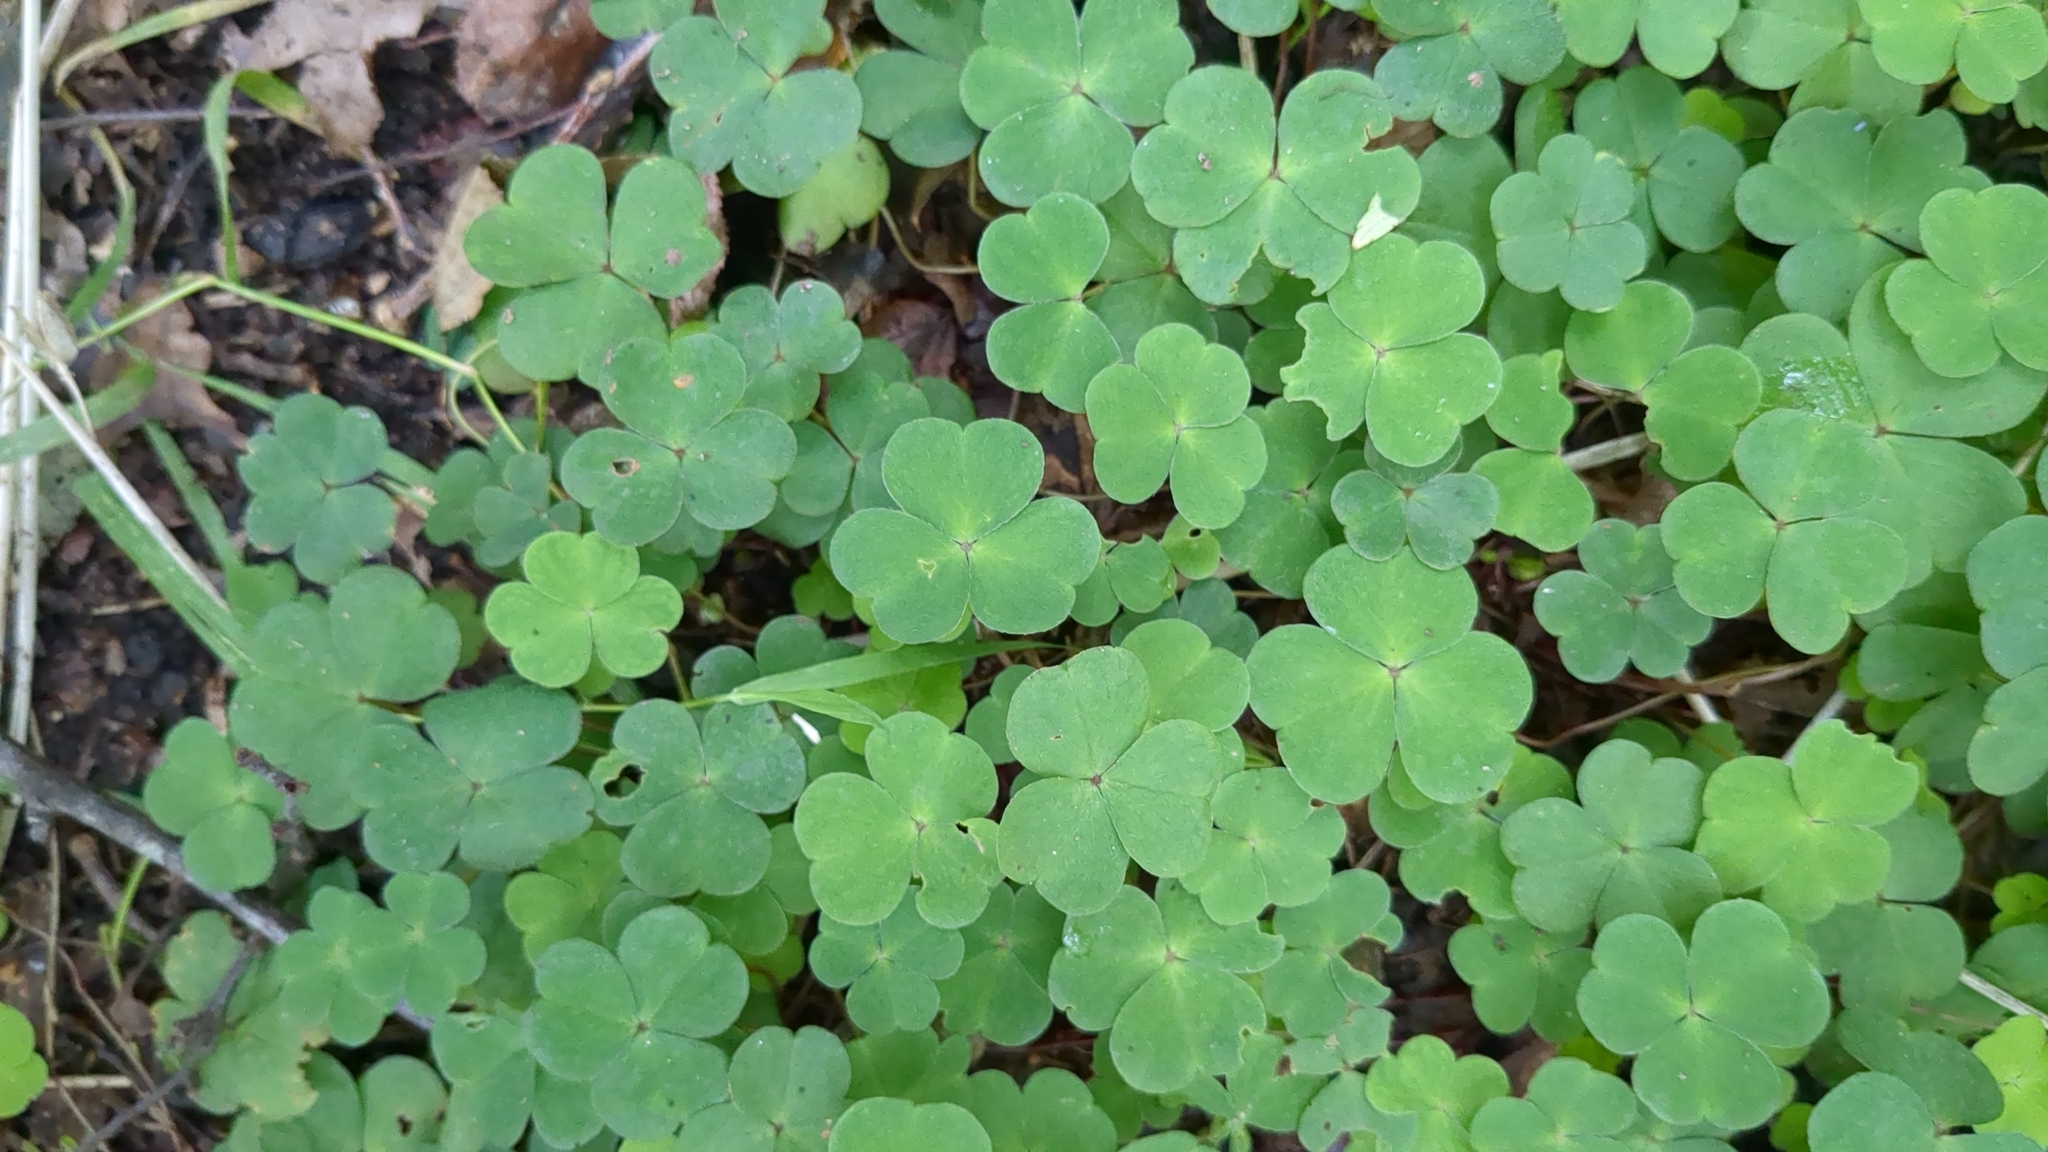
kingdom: Plantae
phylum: Tracheophyta
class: Magnoliopsida
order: Oxalidales
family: Oxalidaceae
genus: Oxalis
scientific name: Oxalis acetosella
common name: Wood-sorrel
